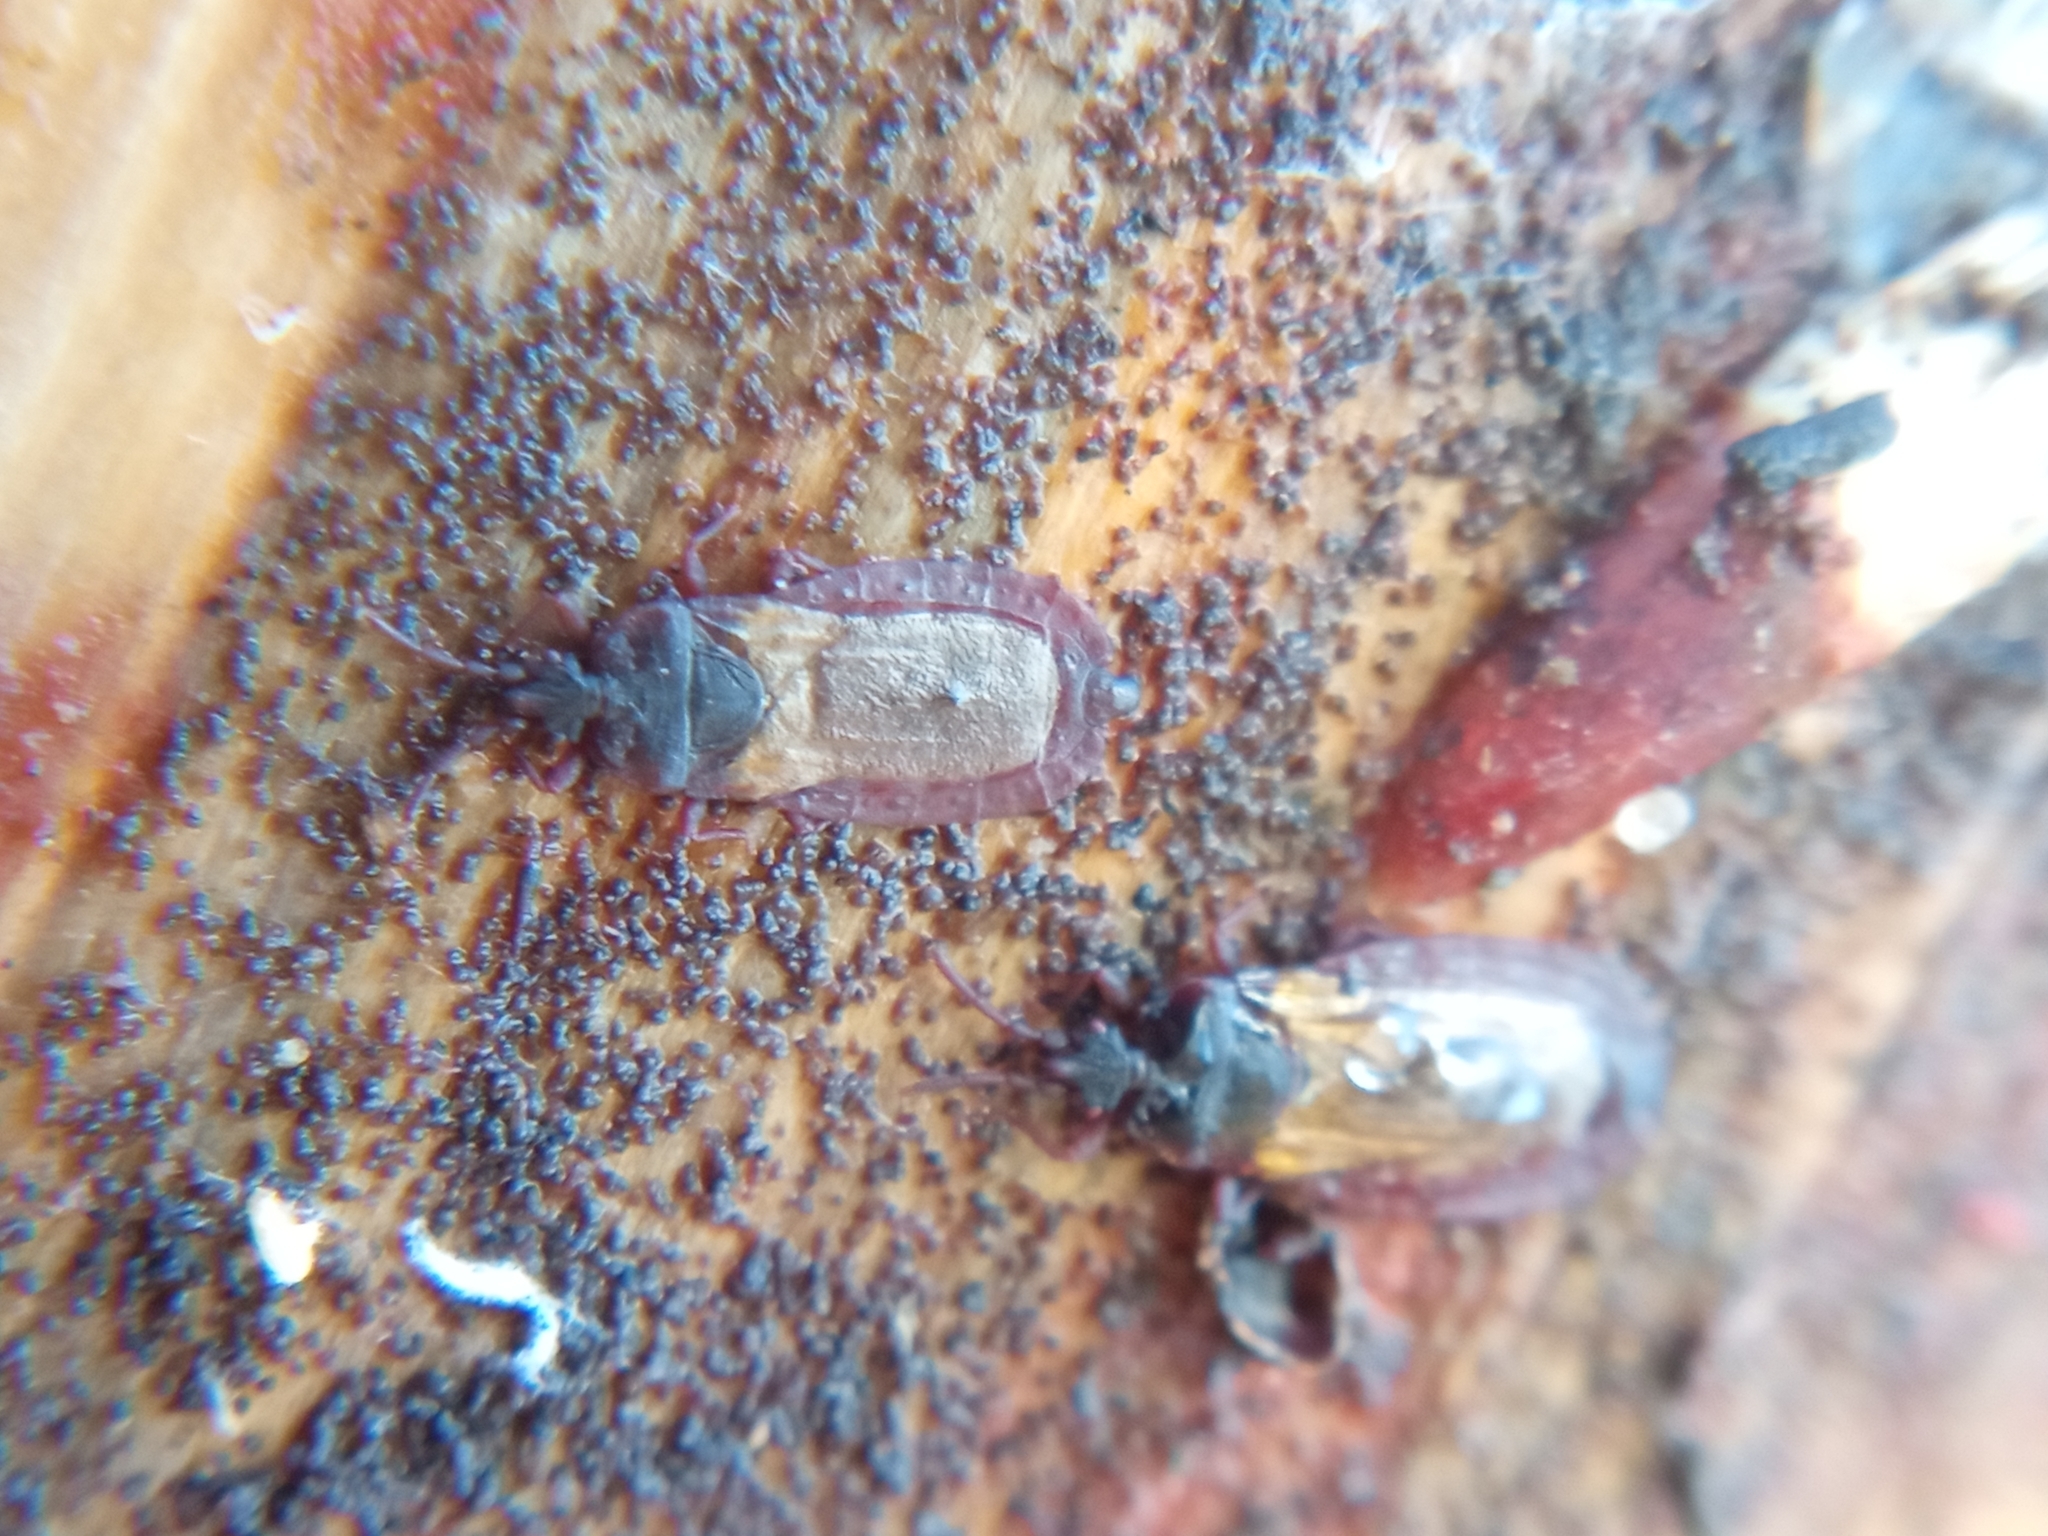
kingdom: Animalia
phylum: Arthropoda
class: Insecta
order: Hemiptera
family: Aradidae
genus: Aneurus
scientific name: Aneurus laevis
